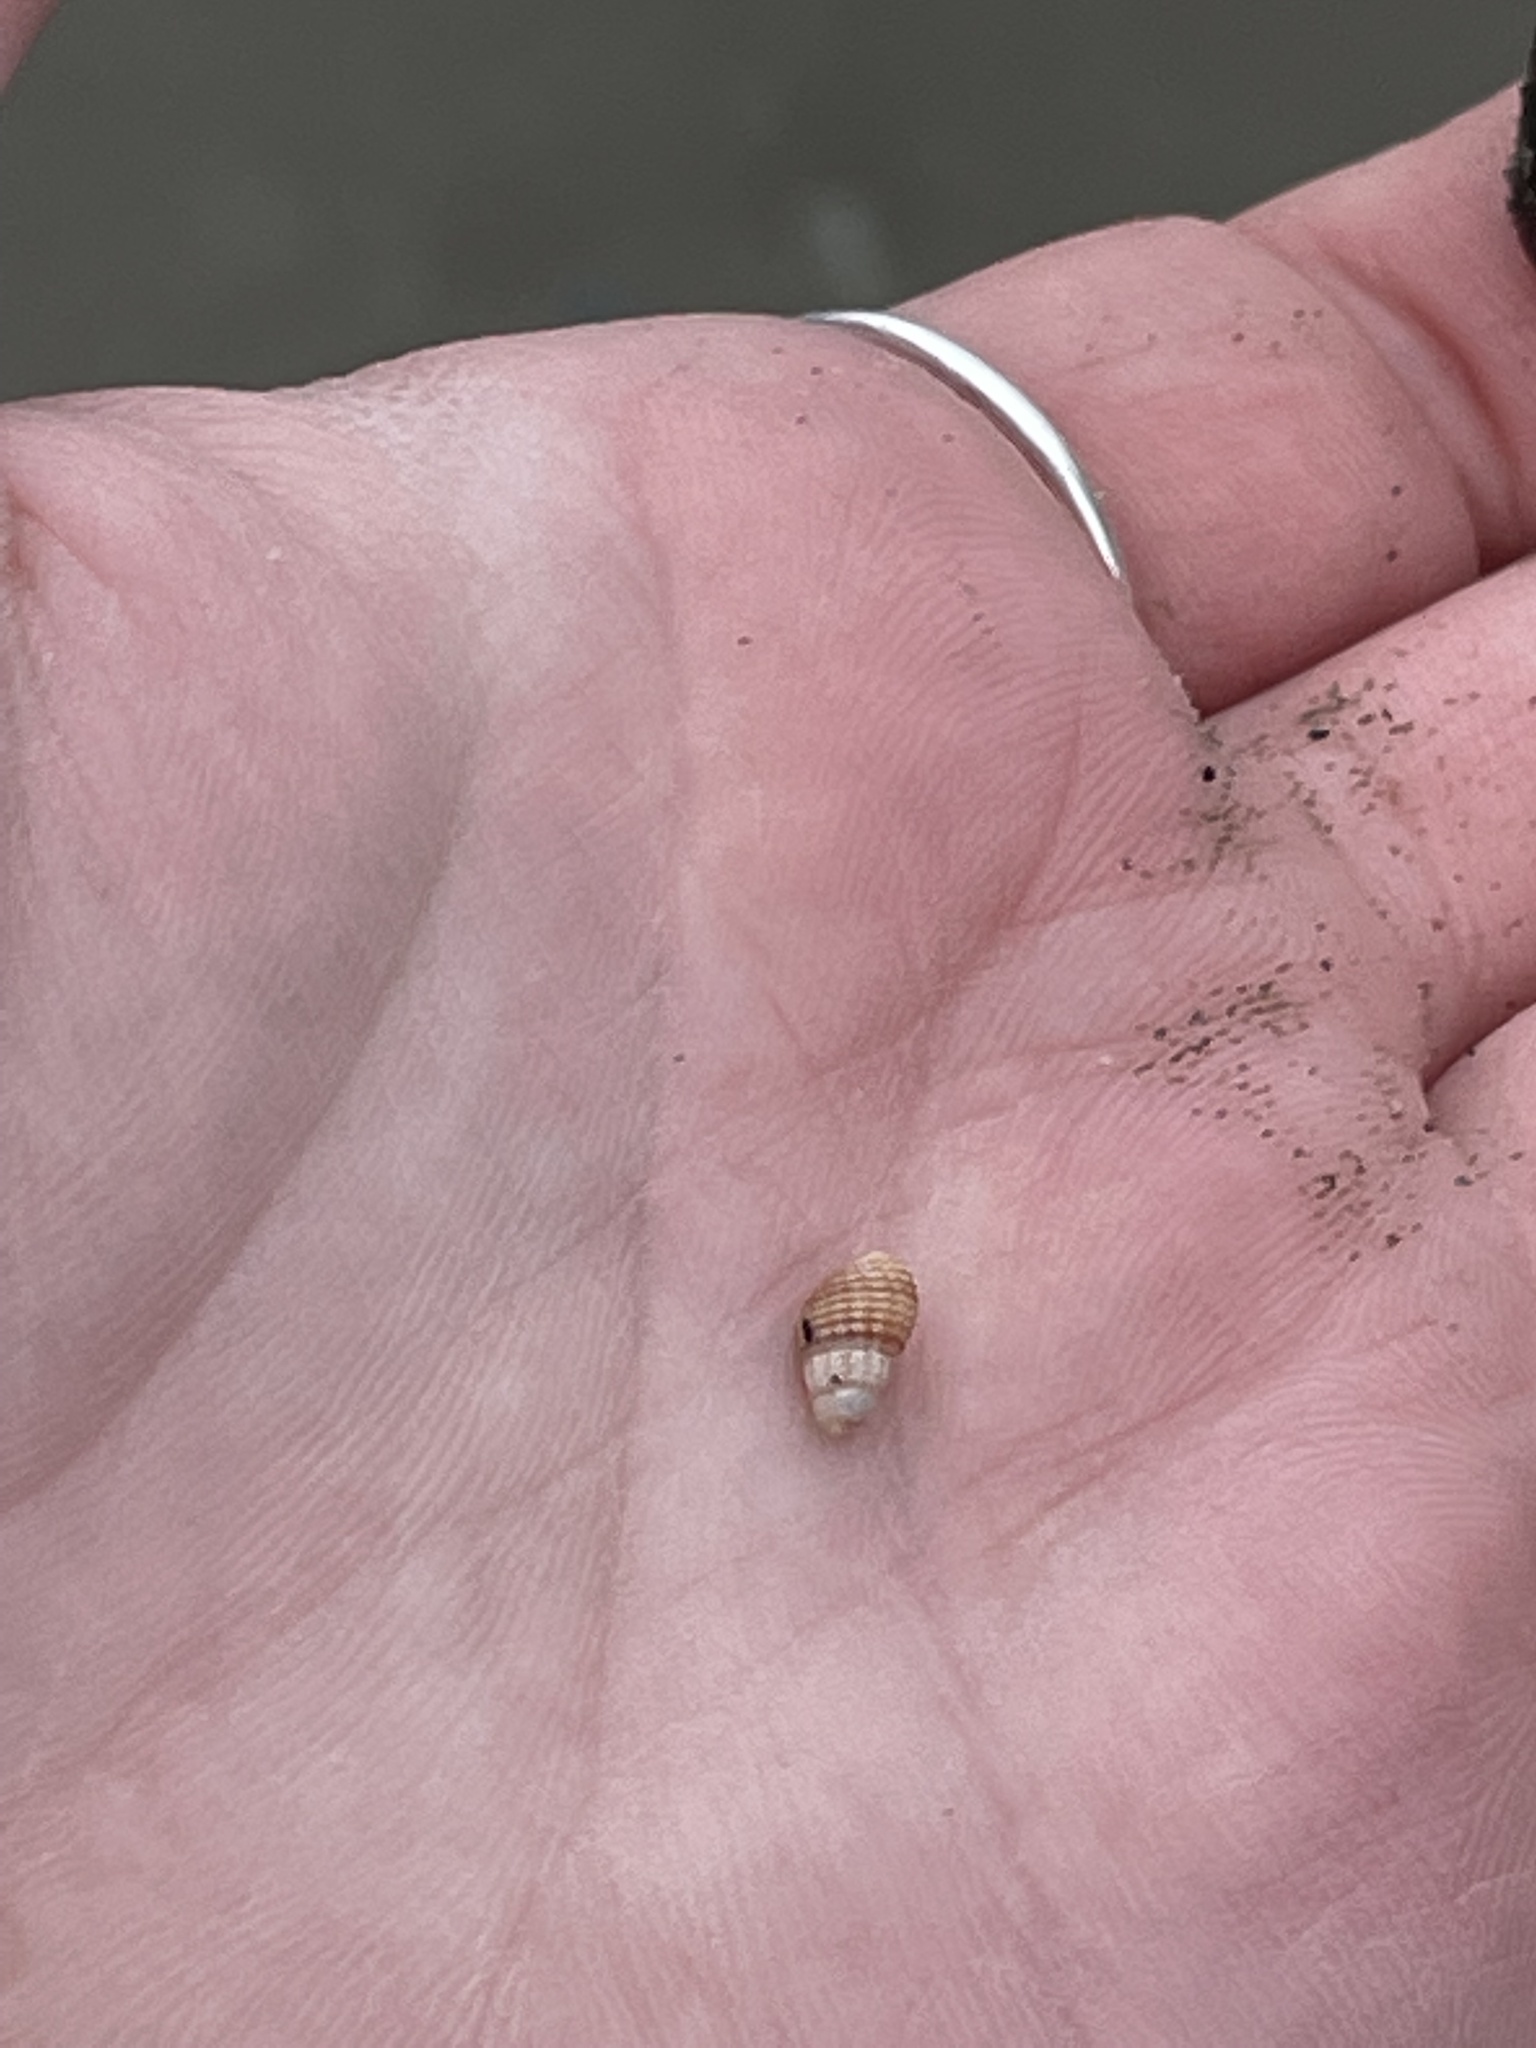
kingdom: Animalia
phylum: Mollusca
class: Gastropoda
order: Neogastropoda
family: Nassariidae
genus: Ilyanassa
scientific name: Ilyanassa trivittata
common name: Three-line mudsnail
